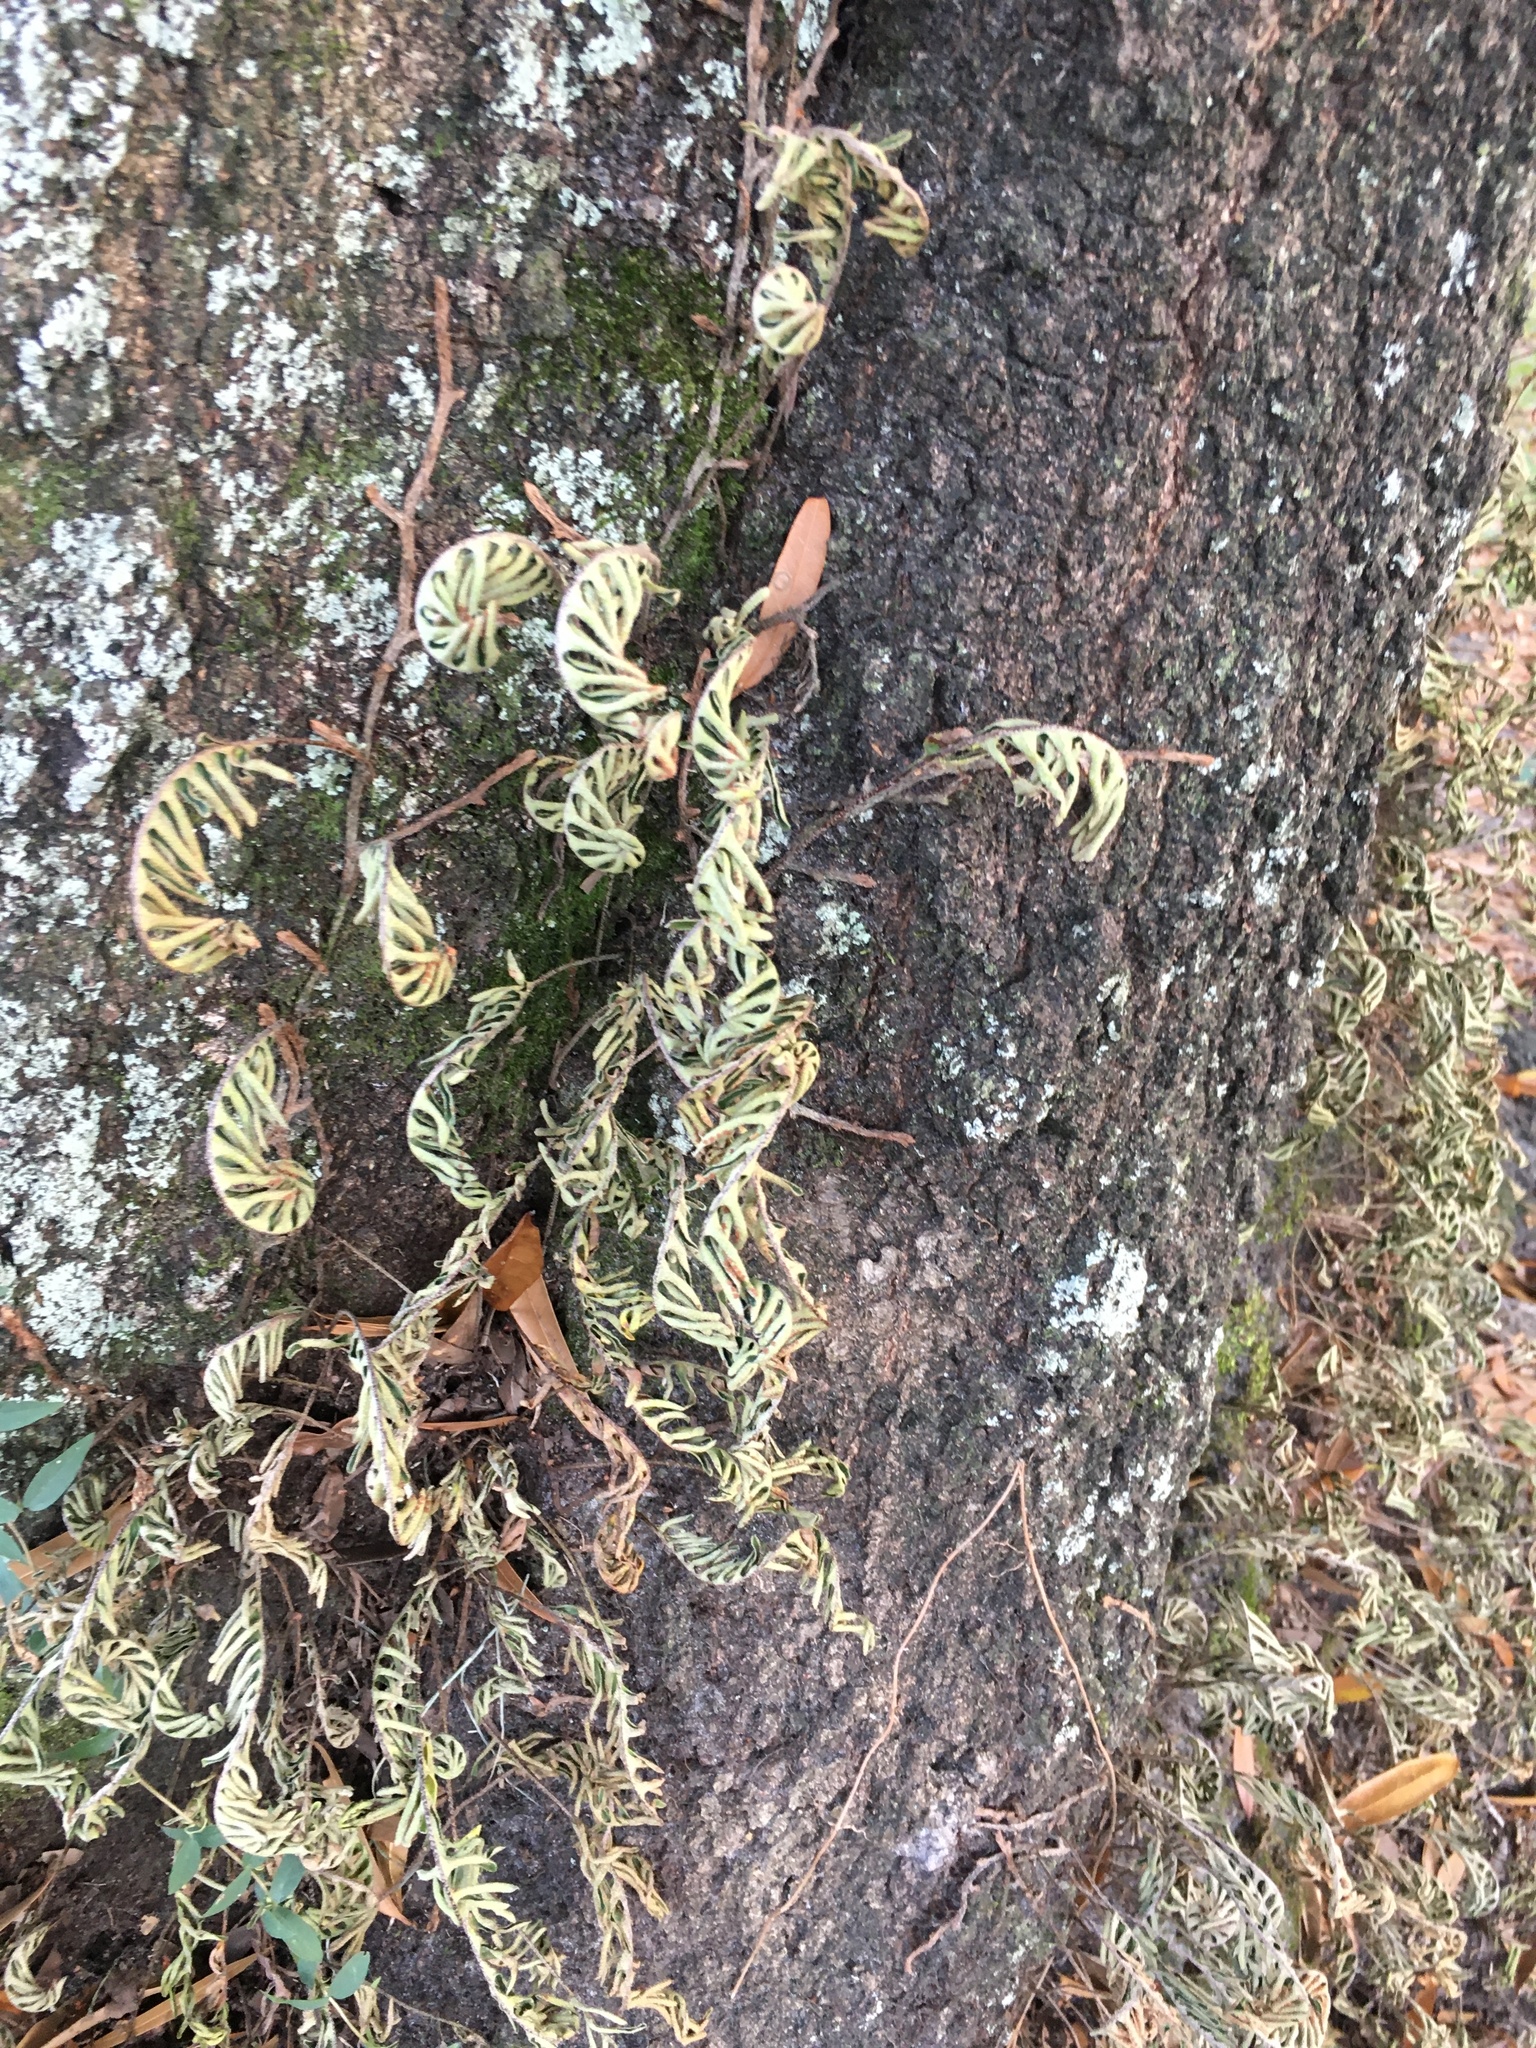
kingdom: Plantae
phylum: Tracheophyta
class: Polypodiopsida
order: Polypodiales
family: Polypodiaceae
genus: Pleopeltis
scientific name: Pleopeltis michauxiana
